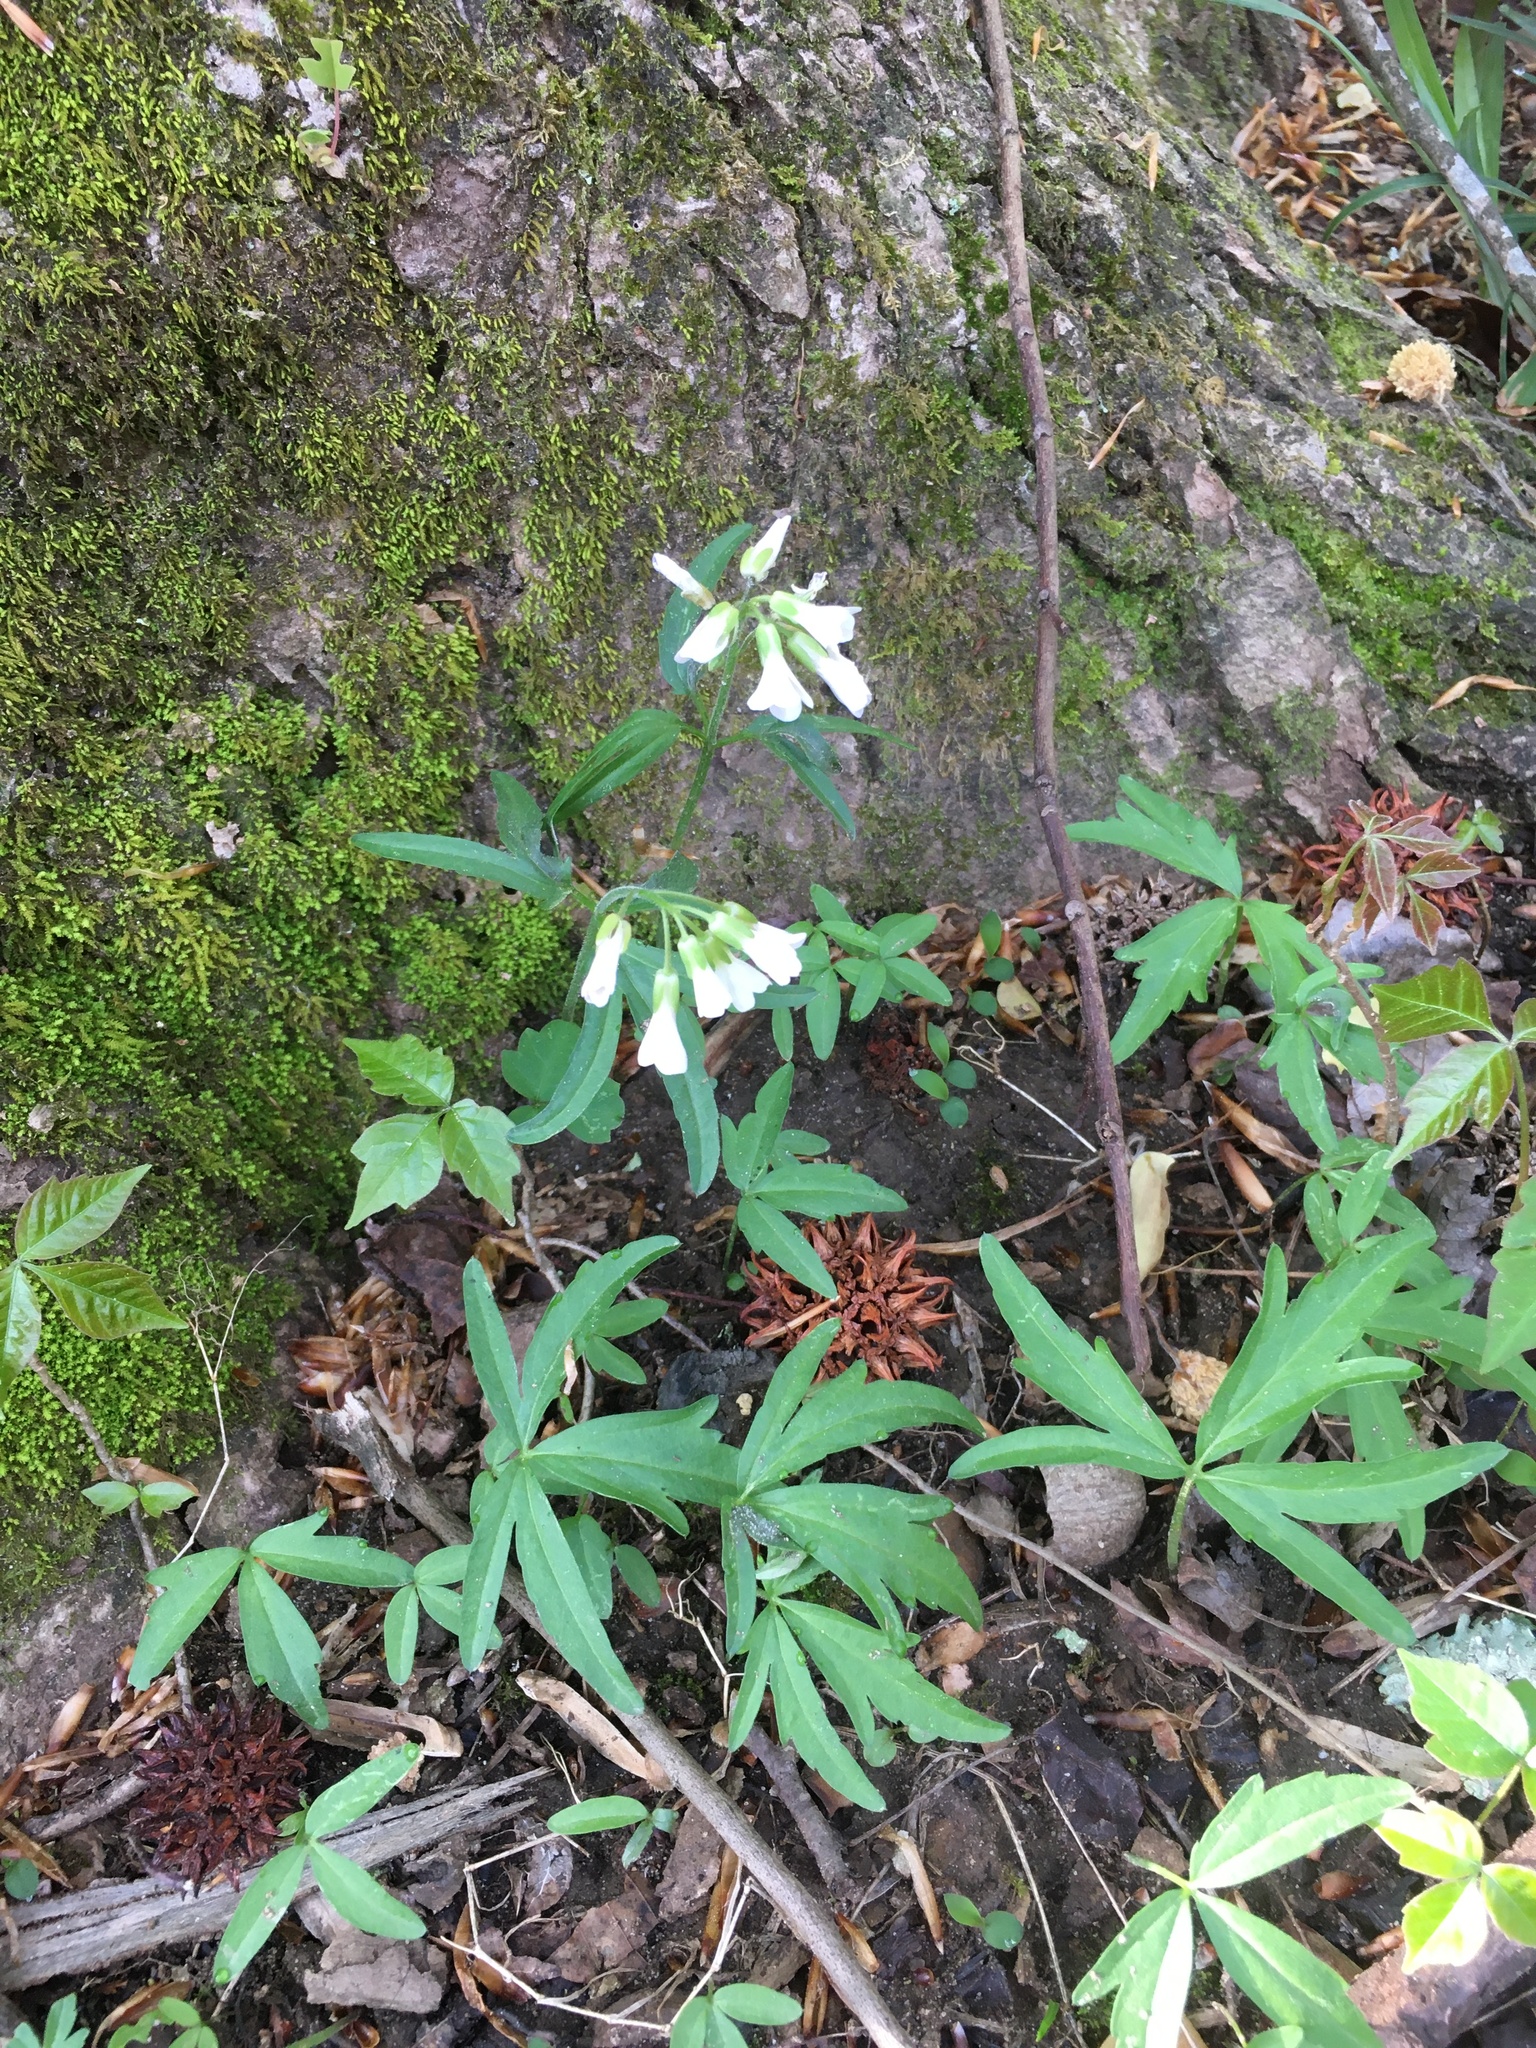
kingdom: Plantae
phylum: Tracheophyta
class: Magnoliopsida
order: Brassicales
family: Brassicaceae
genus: Cardamine
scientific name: Cardamine concatenata
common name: Cut-leaf toothcup
